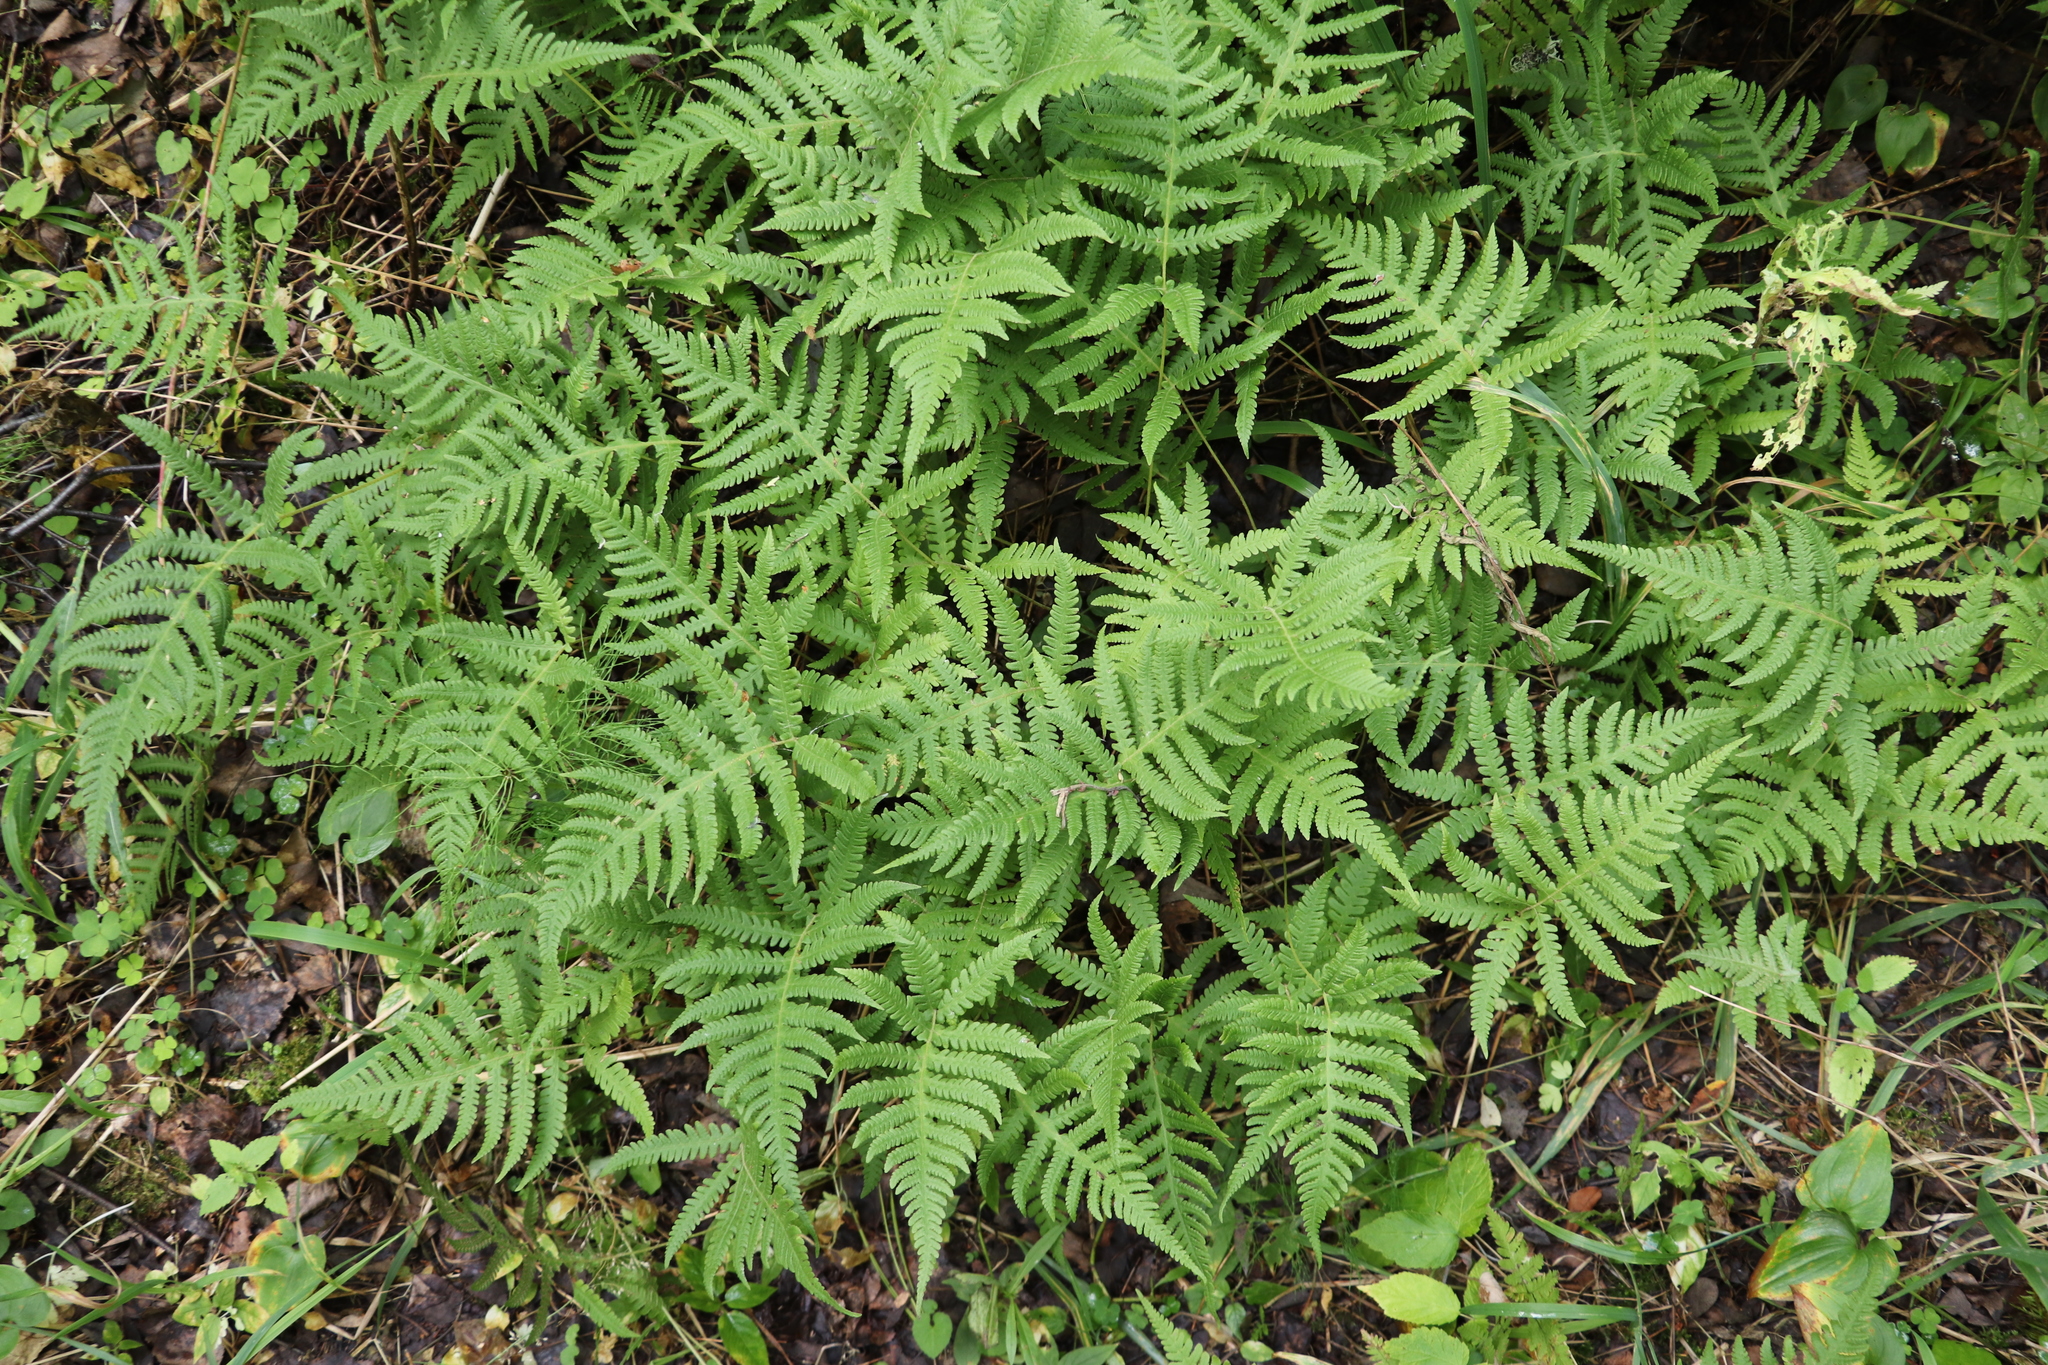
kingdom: Plantae
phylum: Tracheophyta
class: Polypodiopsida
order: Polypodiales
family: Thelypteridaceae
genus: Phegopteris
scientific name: Phegopteris connectilis
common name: Beech fern
